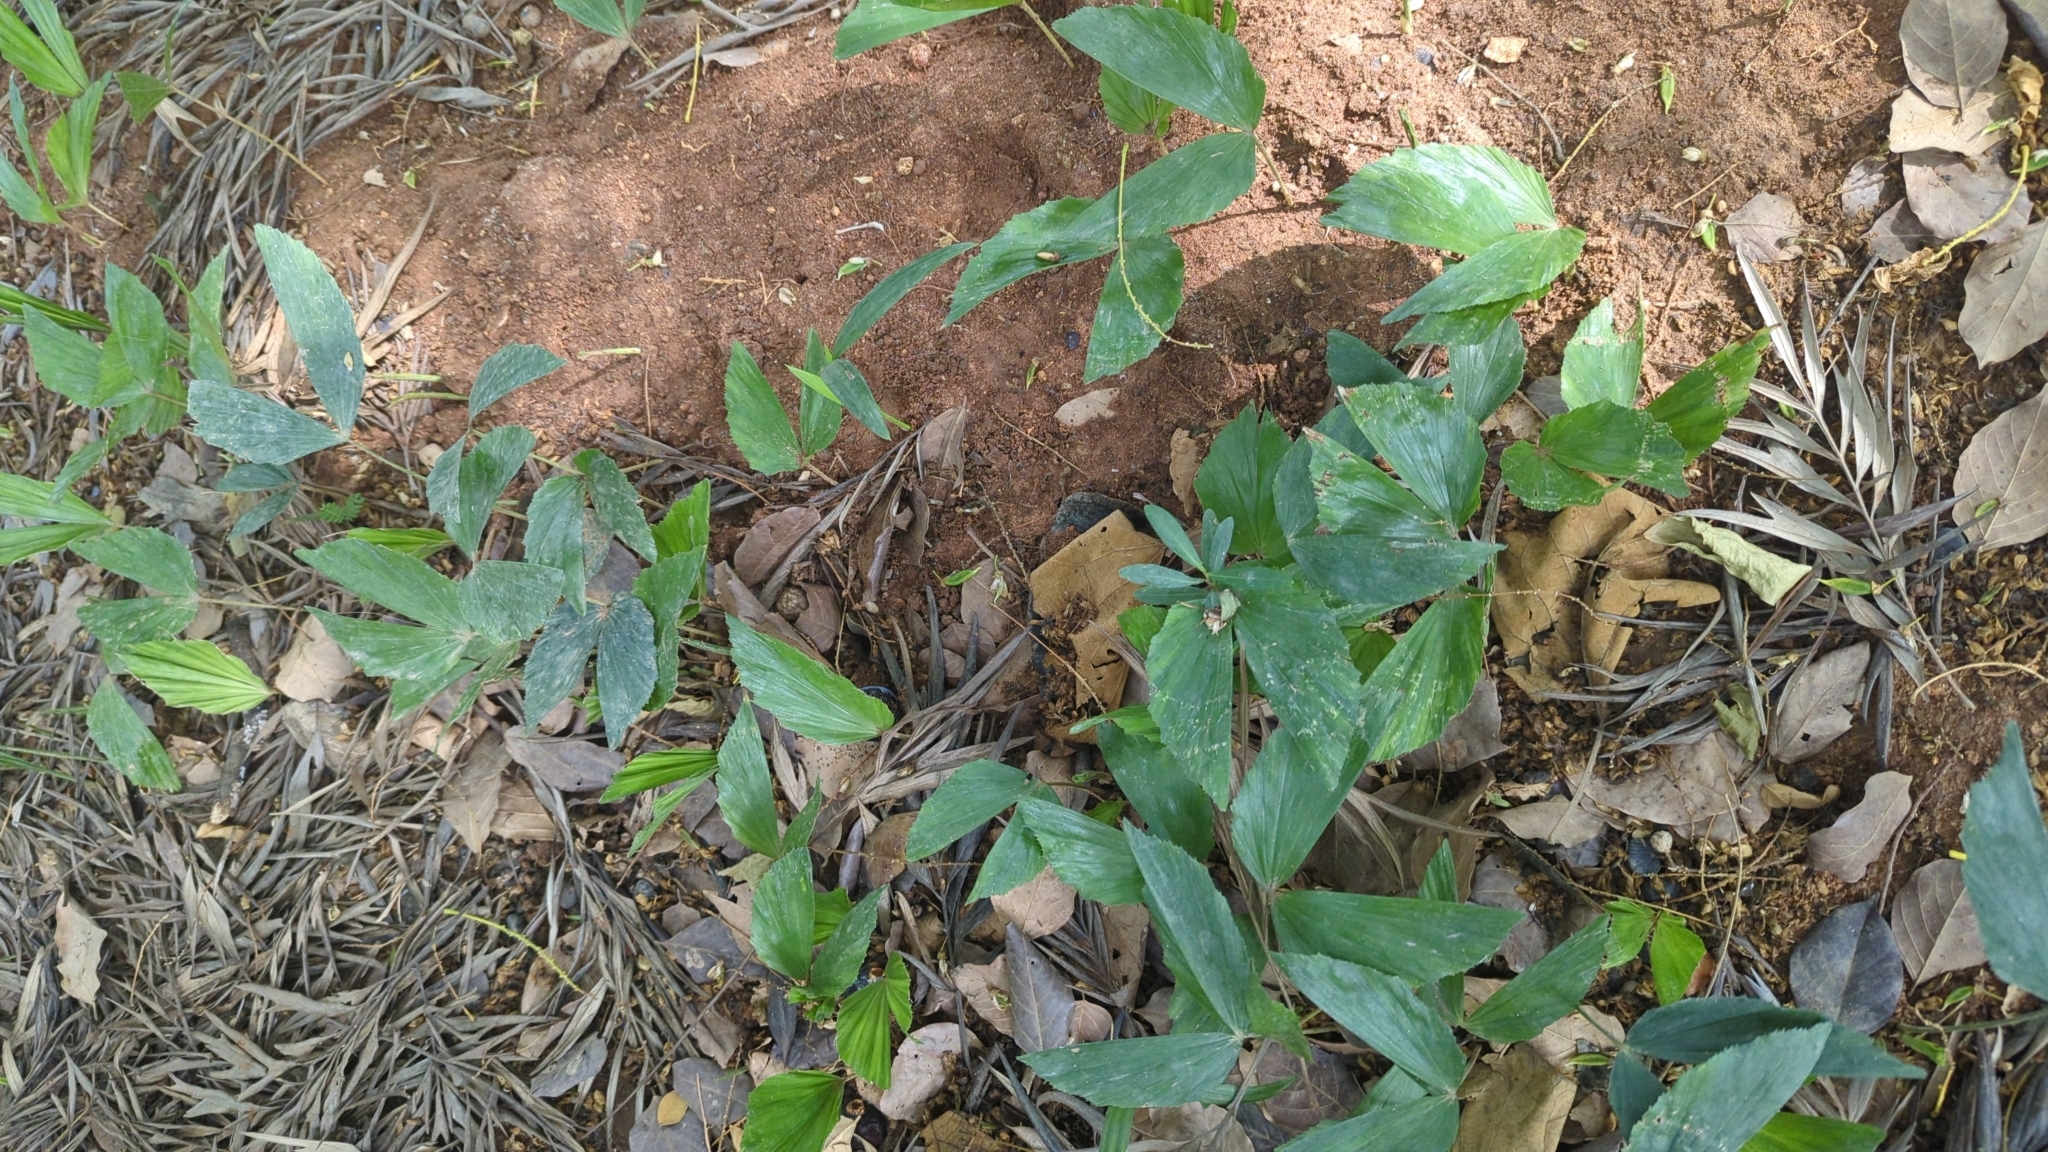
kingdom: Plantae
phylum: Tracheophyta
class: Liliopsida
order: Arecales
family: Arecaceae
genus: Caryota
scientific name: Caryota urens
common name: Jaggery palm
